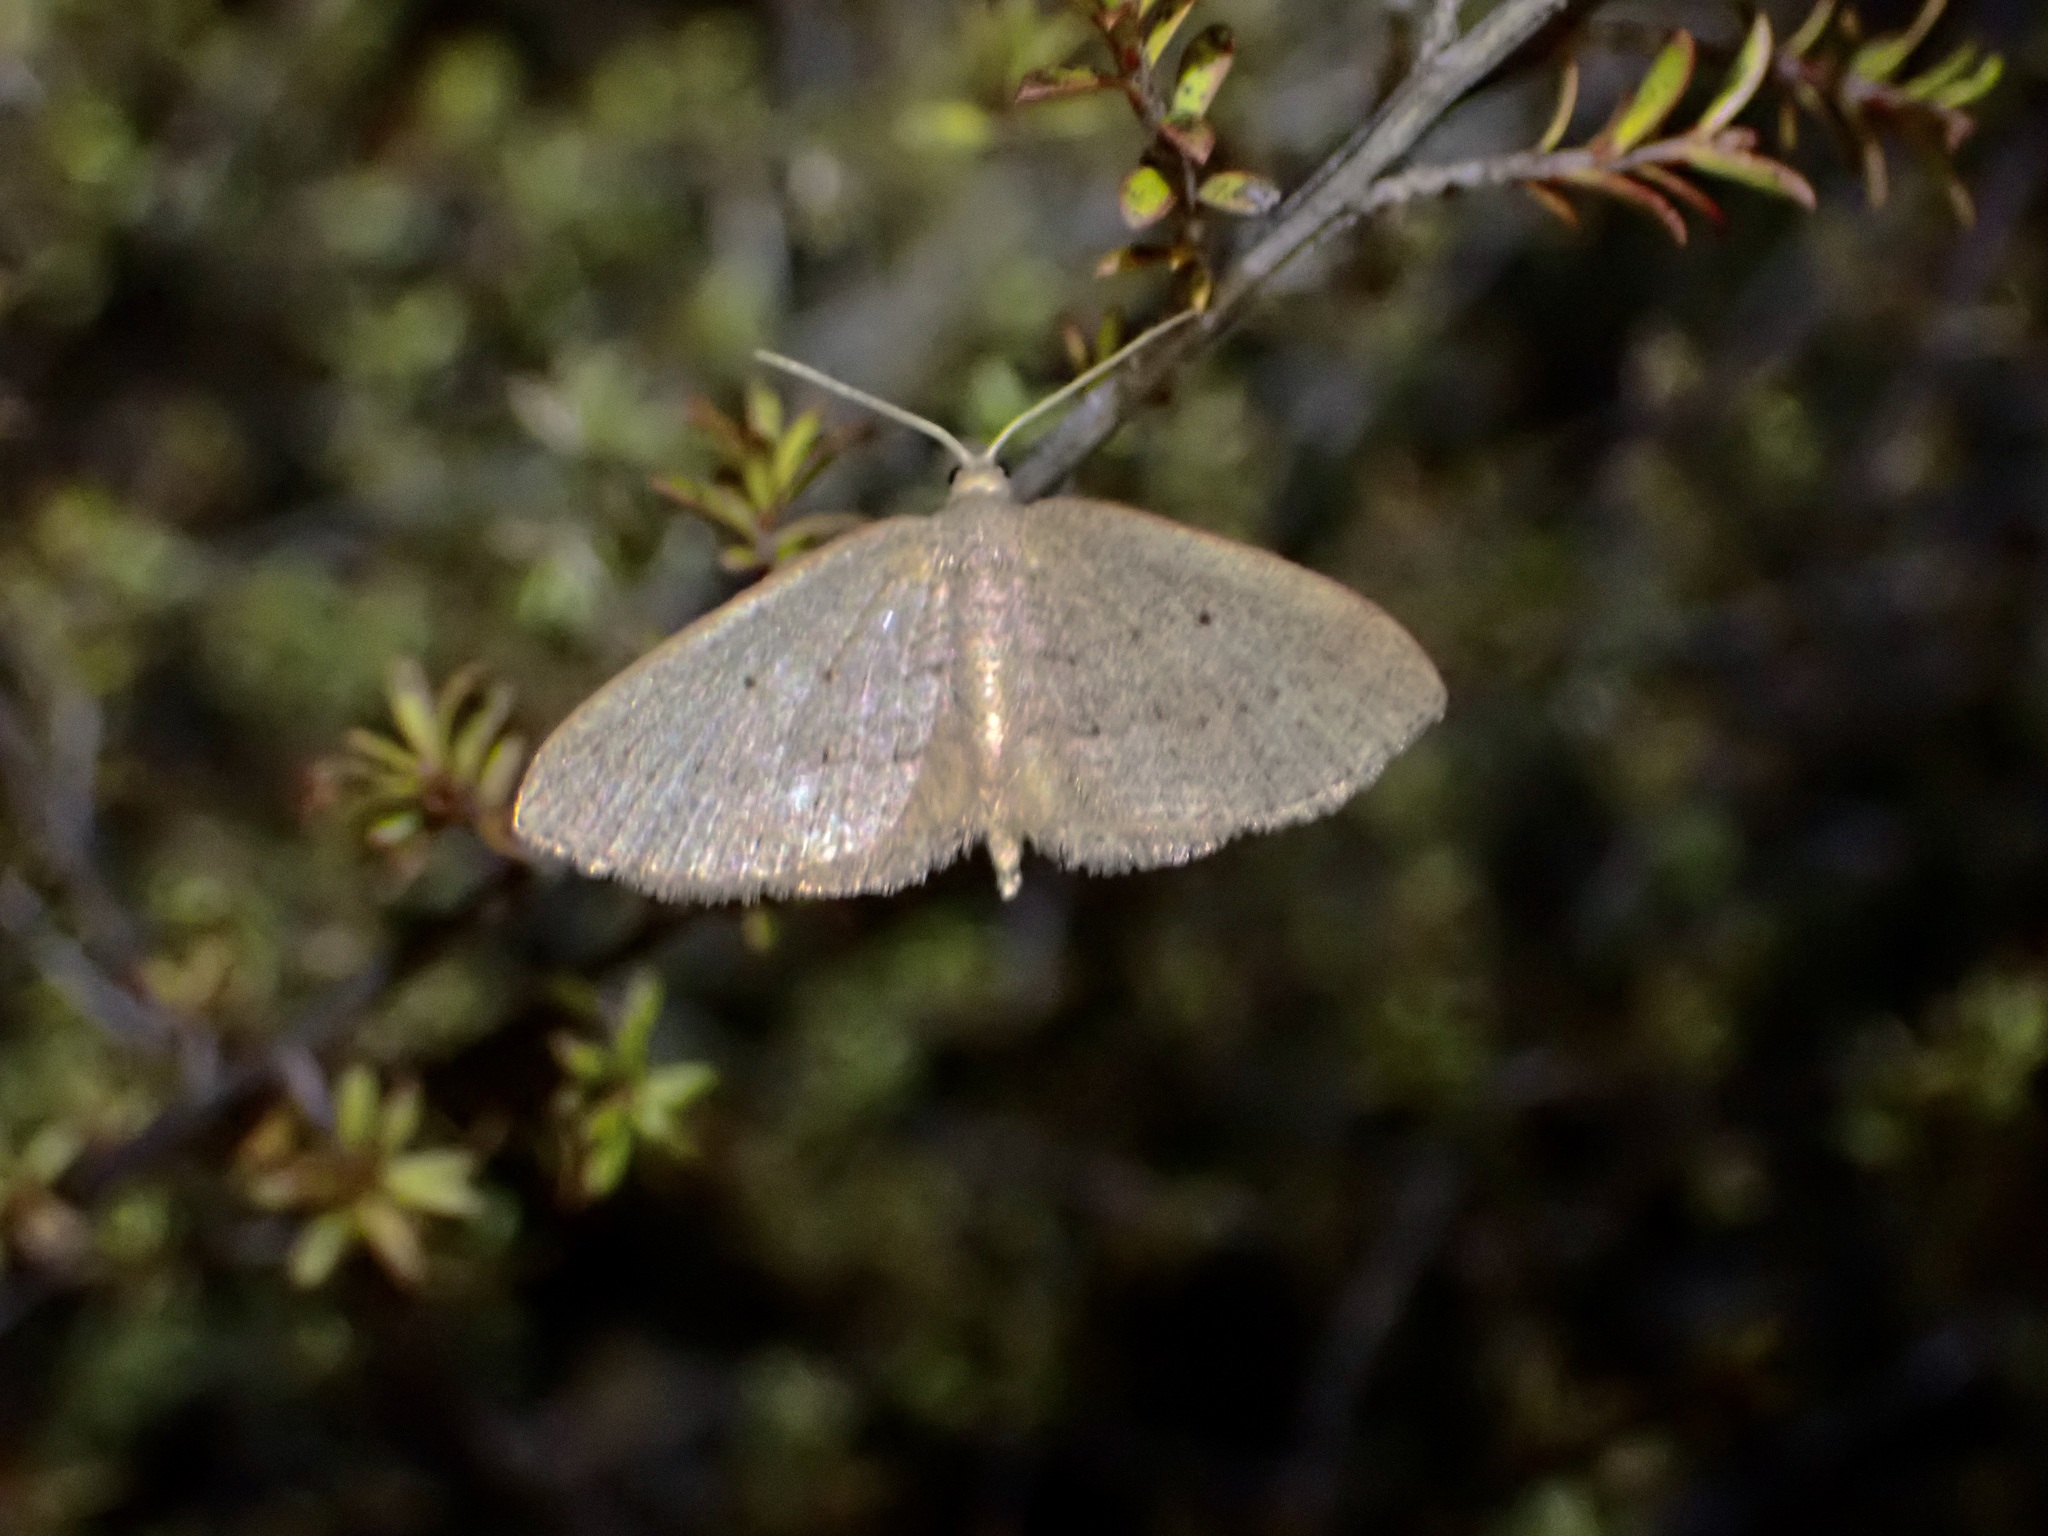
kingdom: Animalia
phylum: Arthropoda
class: Insecta
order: Lepidoptera
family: Geometridae
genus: Poecilasthena
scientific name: Poecilasthena schistaria
